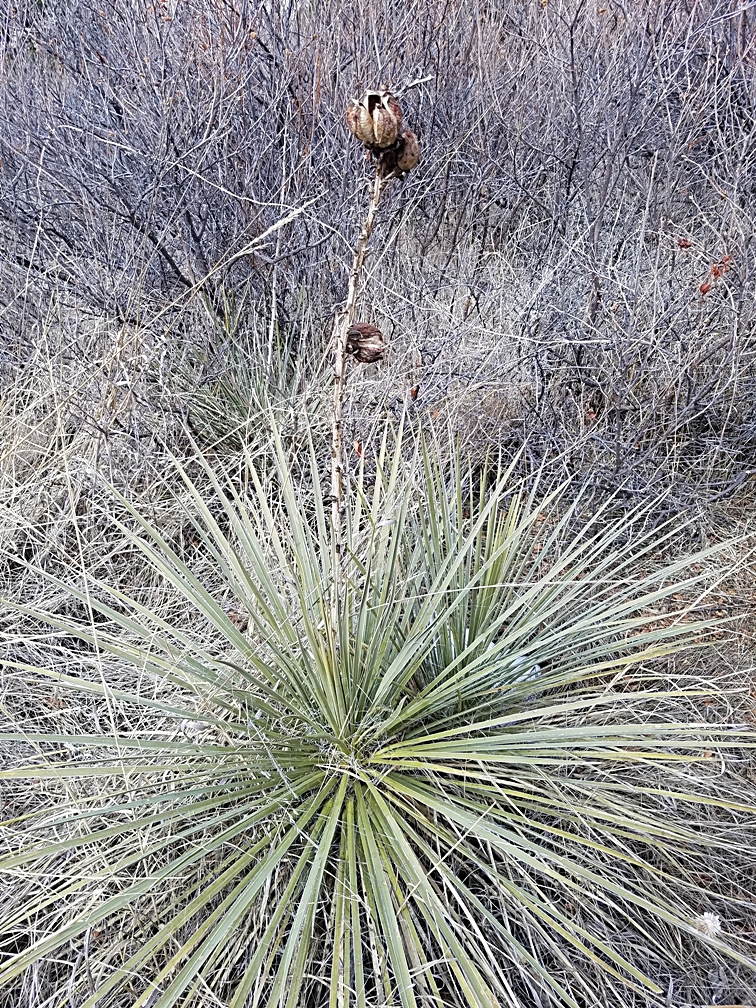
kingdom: Plantae
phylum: Tracheophyta
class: Liliopsida
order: Asparagales
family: Asparagaceae
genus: Yucca
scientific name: Yucca glauca
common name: Great plains yucca
